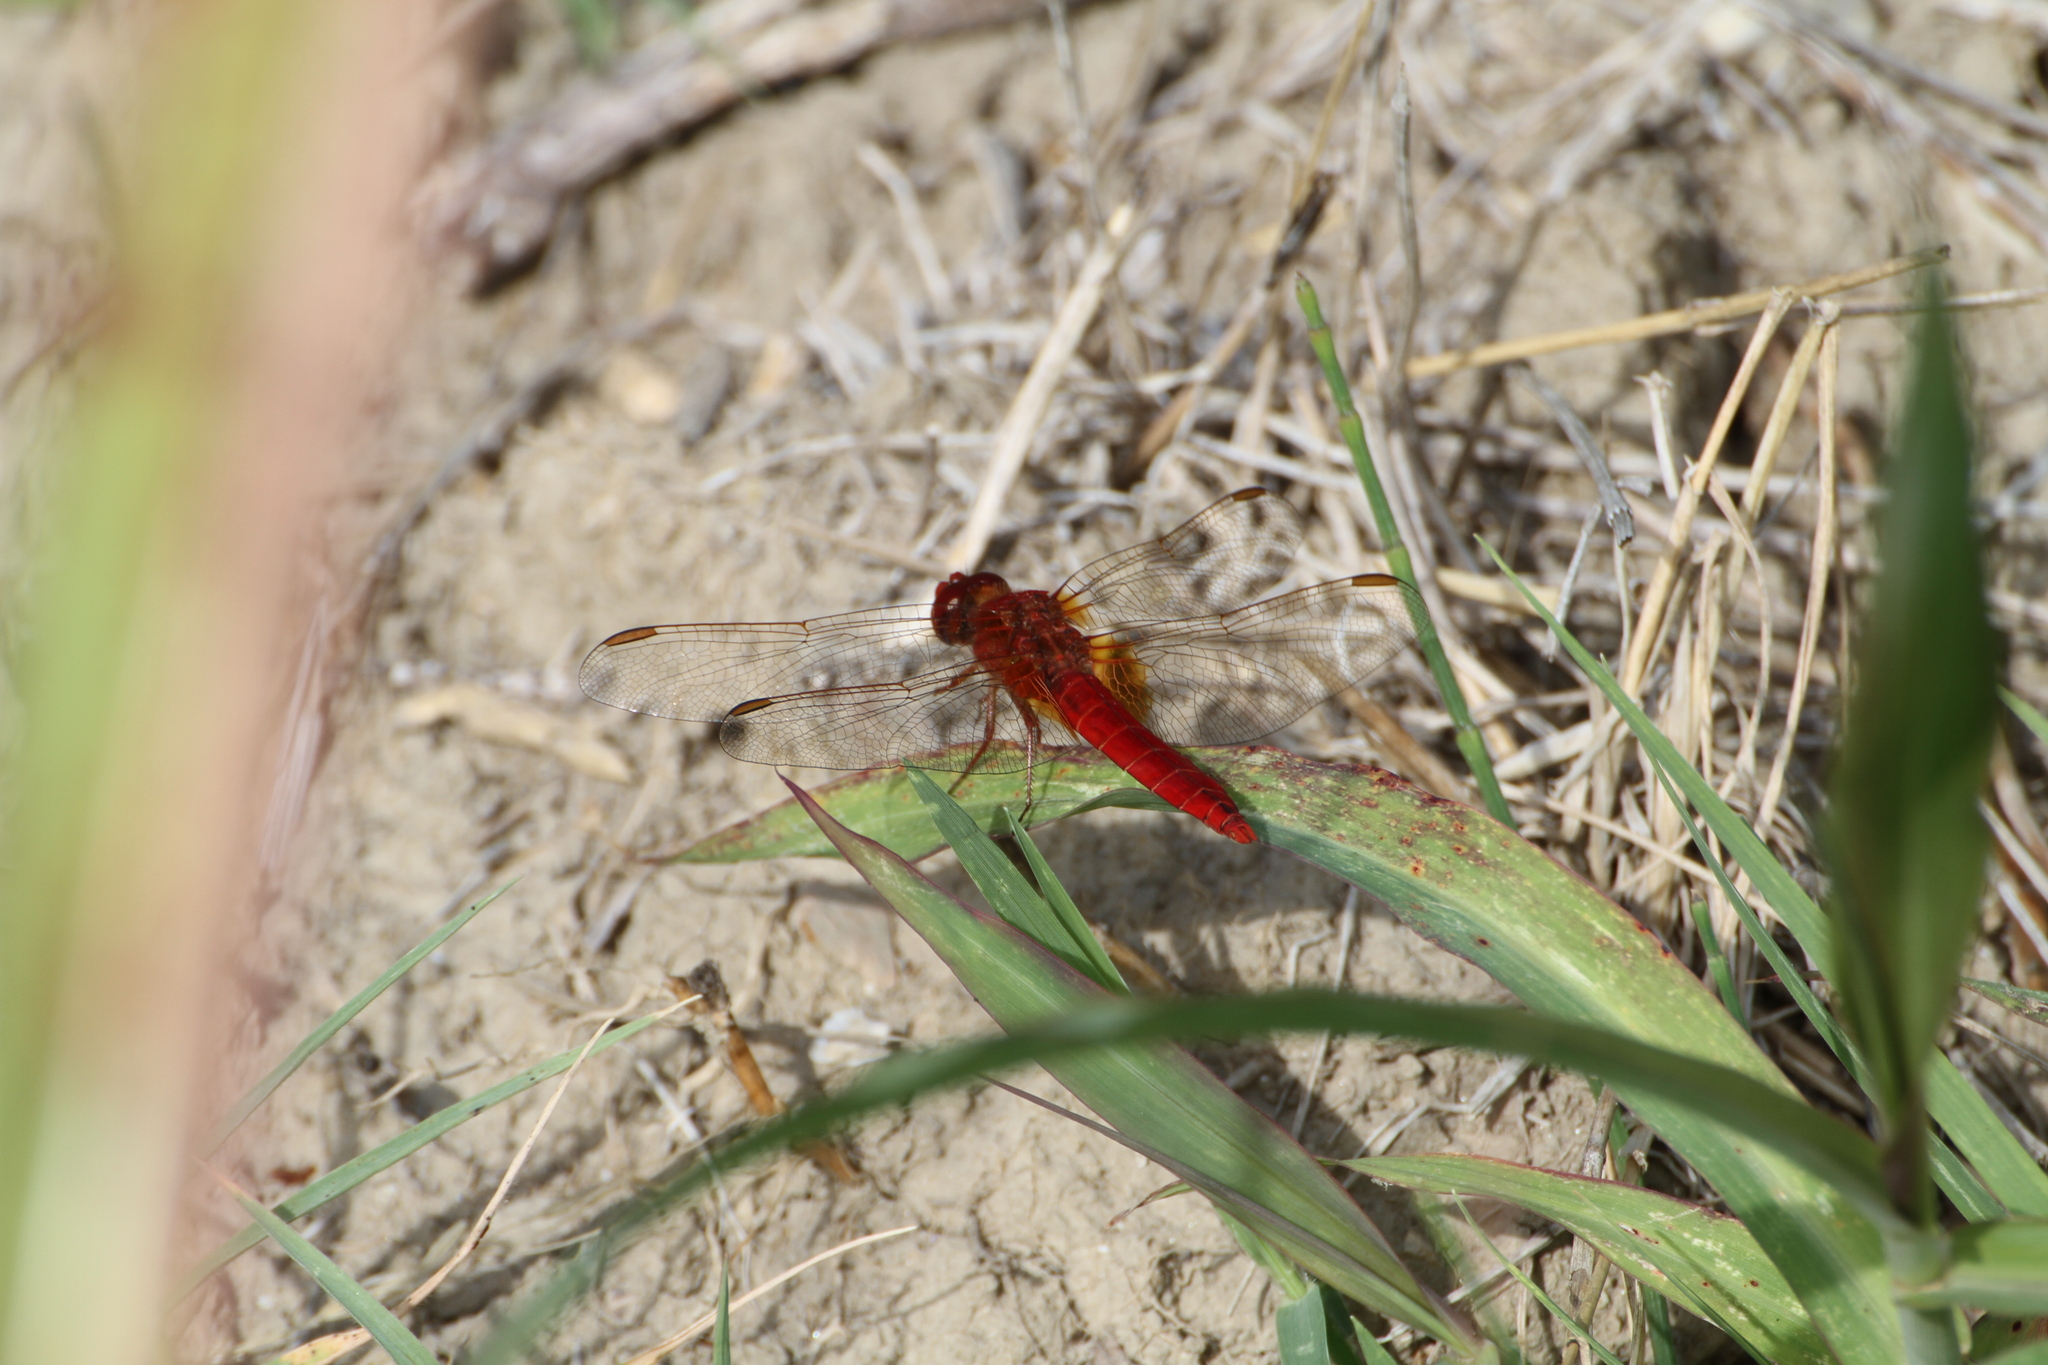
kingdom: Animalia
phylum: Arthropoda
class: Insecta
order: Odonata
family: Libellulidae
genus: Crocothemis
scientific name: Crocothemis erythraea
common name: Scarlet dragonfly
